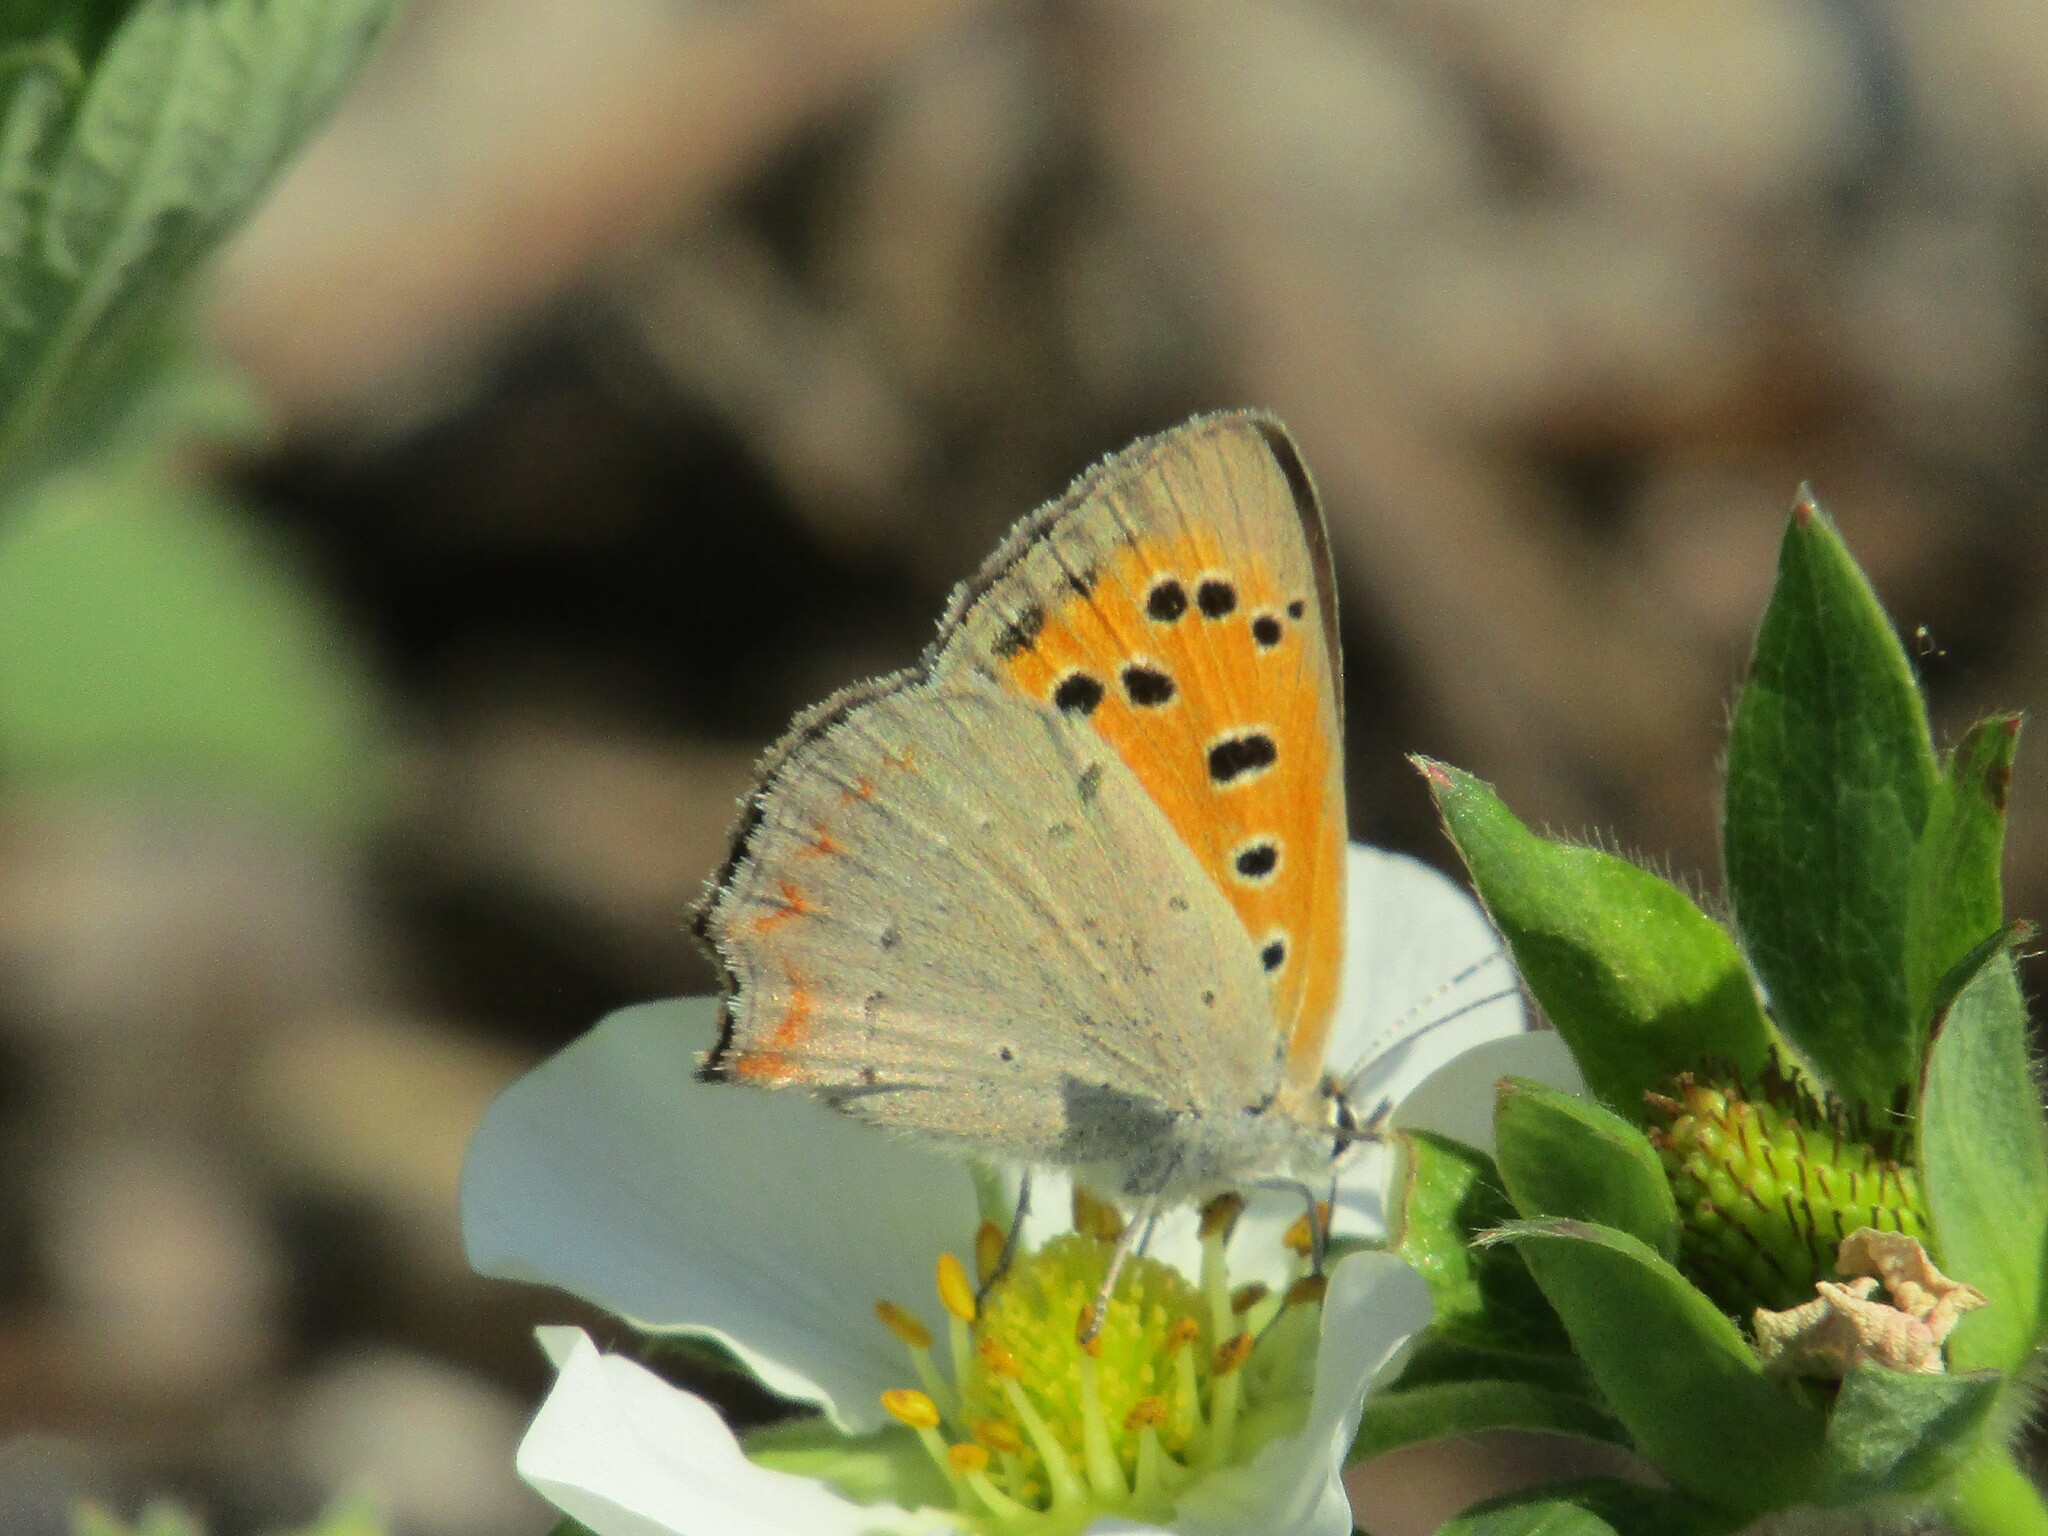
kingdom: Animalia
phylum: Arthropoda
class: Insecta
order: Lepidoptera
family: Lycaenidae
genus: Lycaena
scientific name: Lycaena phlaeas
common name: Small copper
